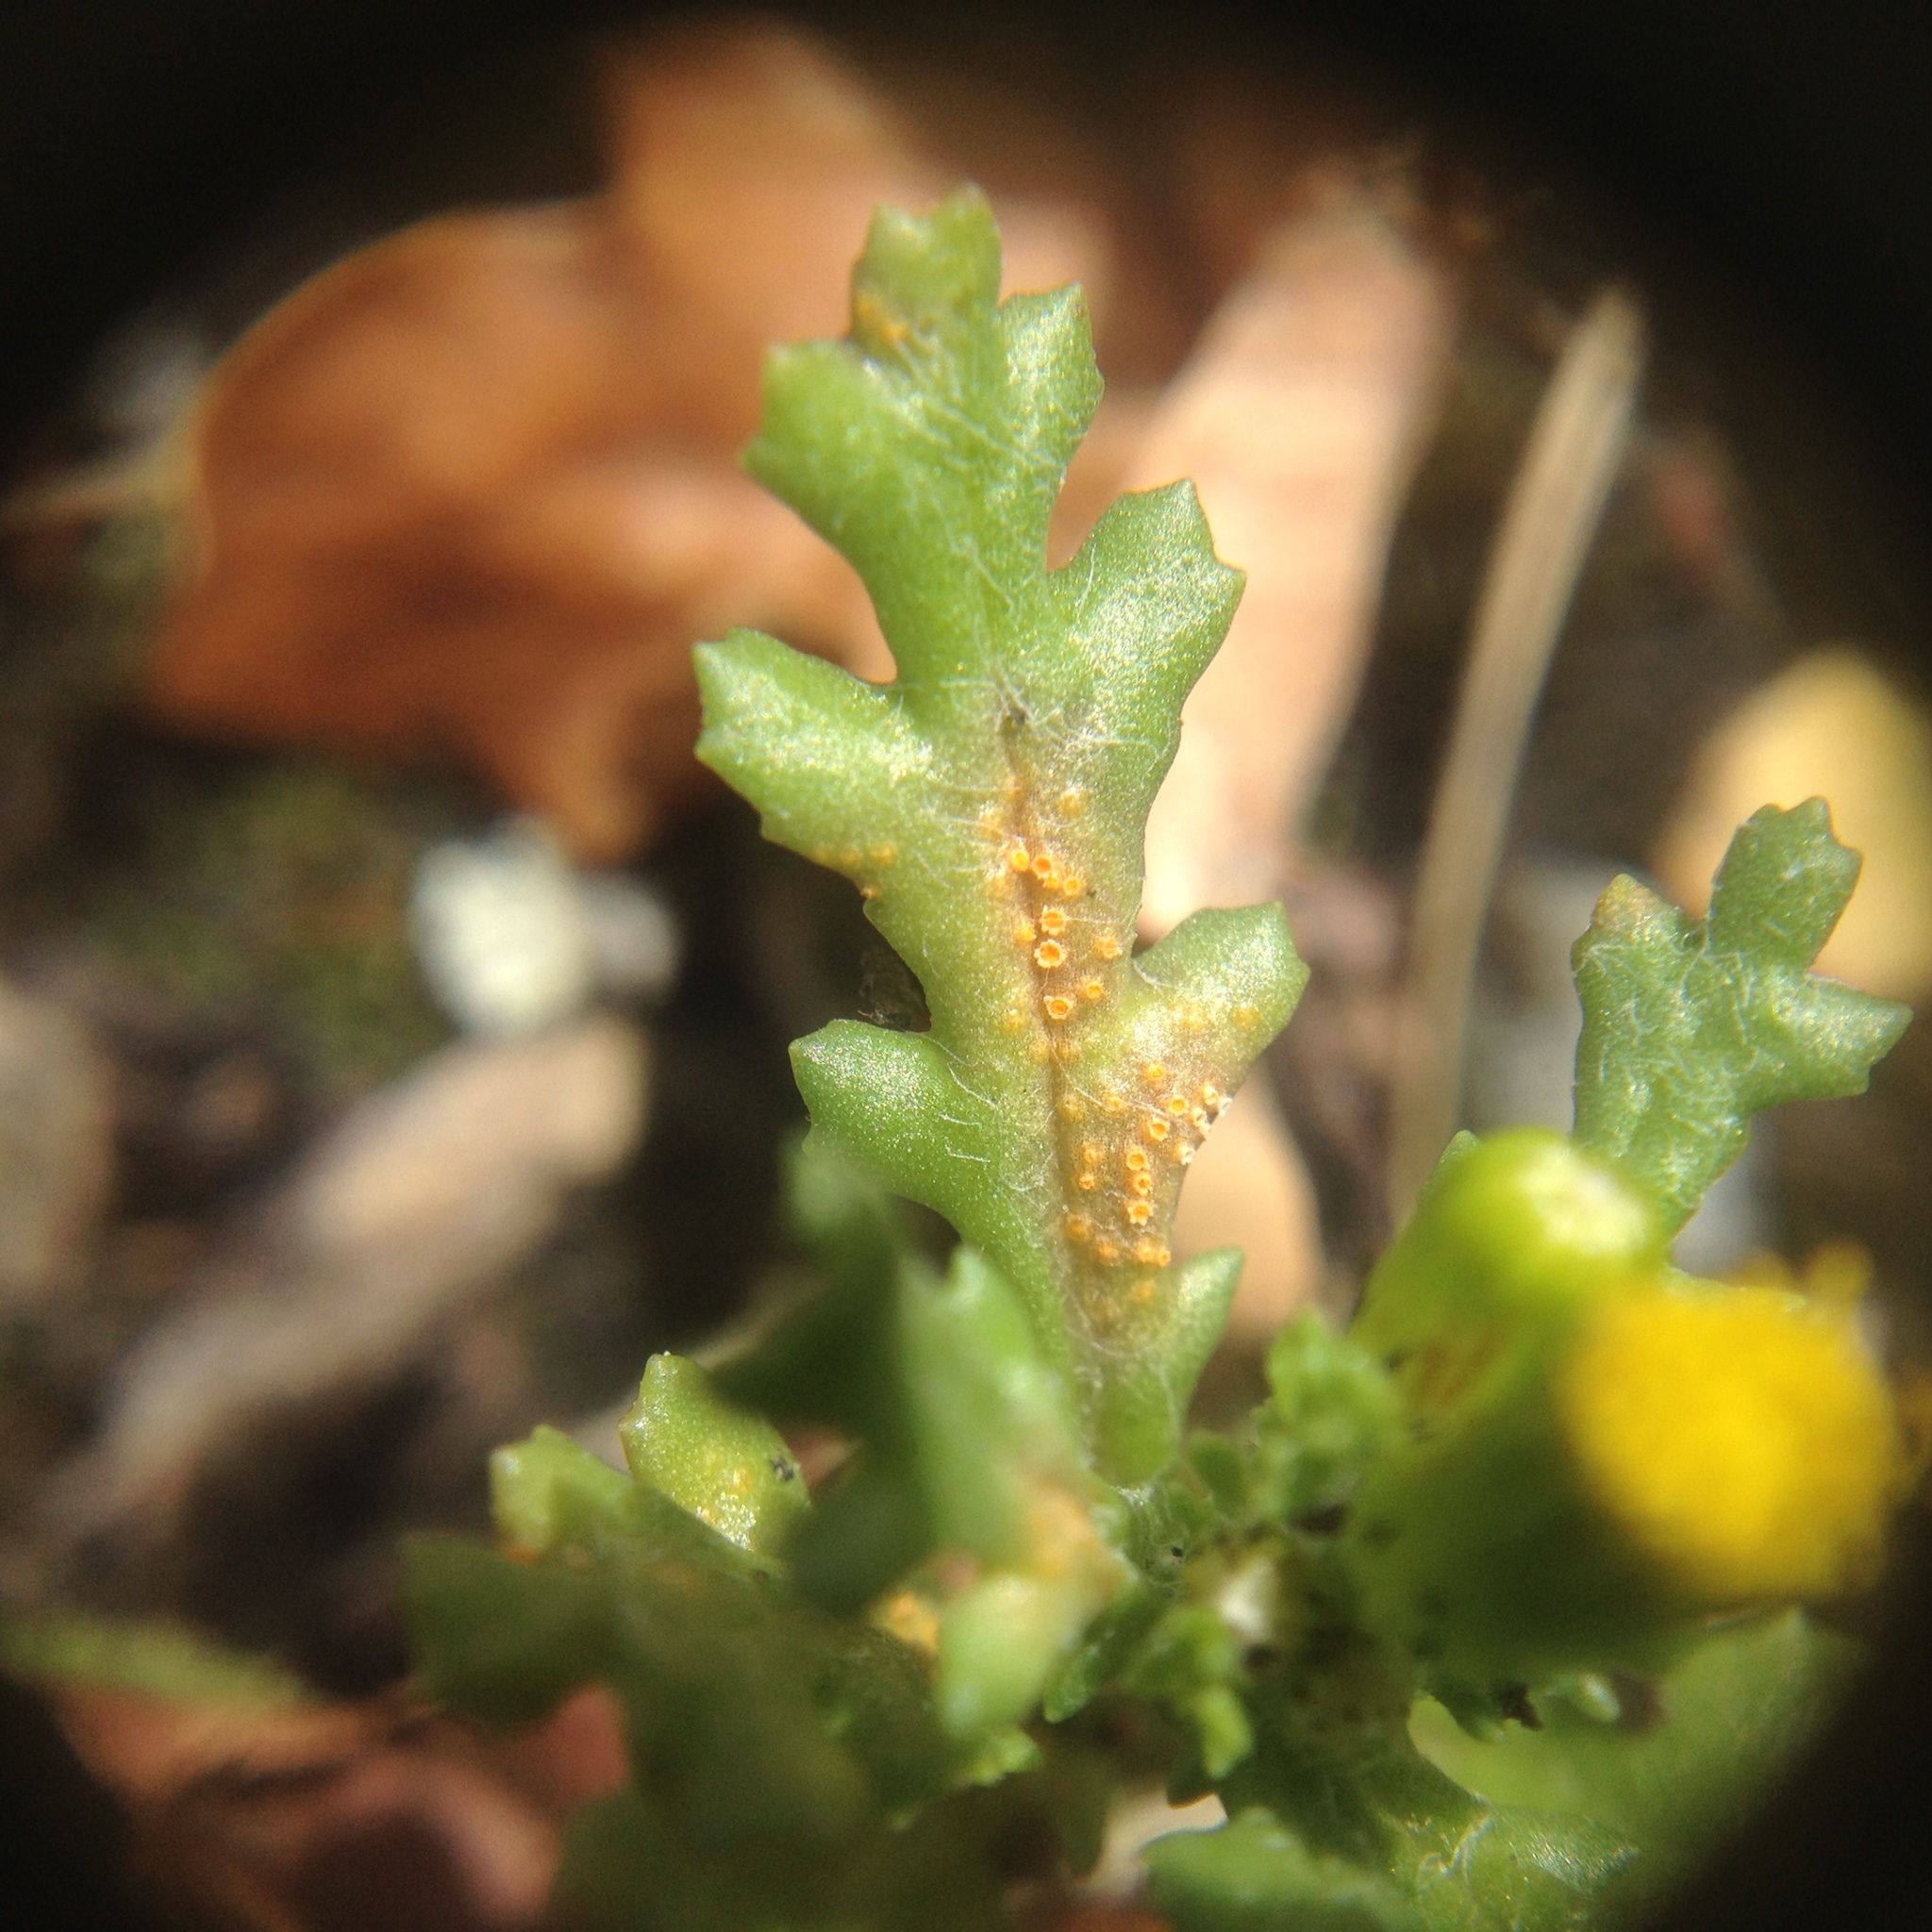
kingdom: Fungi
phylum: Basidiomycota
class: Pucciniomycetes
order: Pucciniales
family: Pucciniaceae
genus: Puccinia
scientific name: Puccinia lagenophorae
